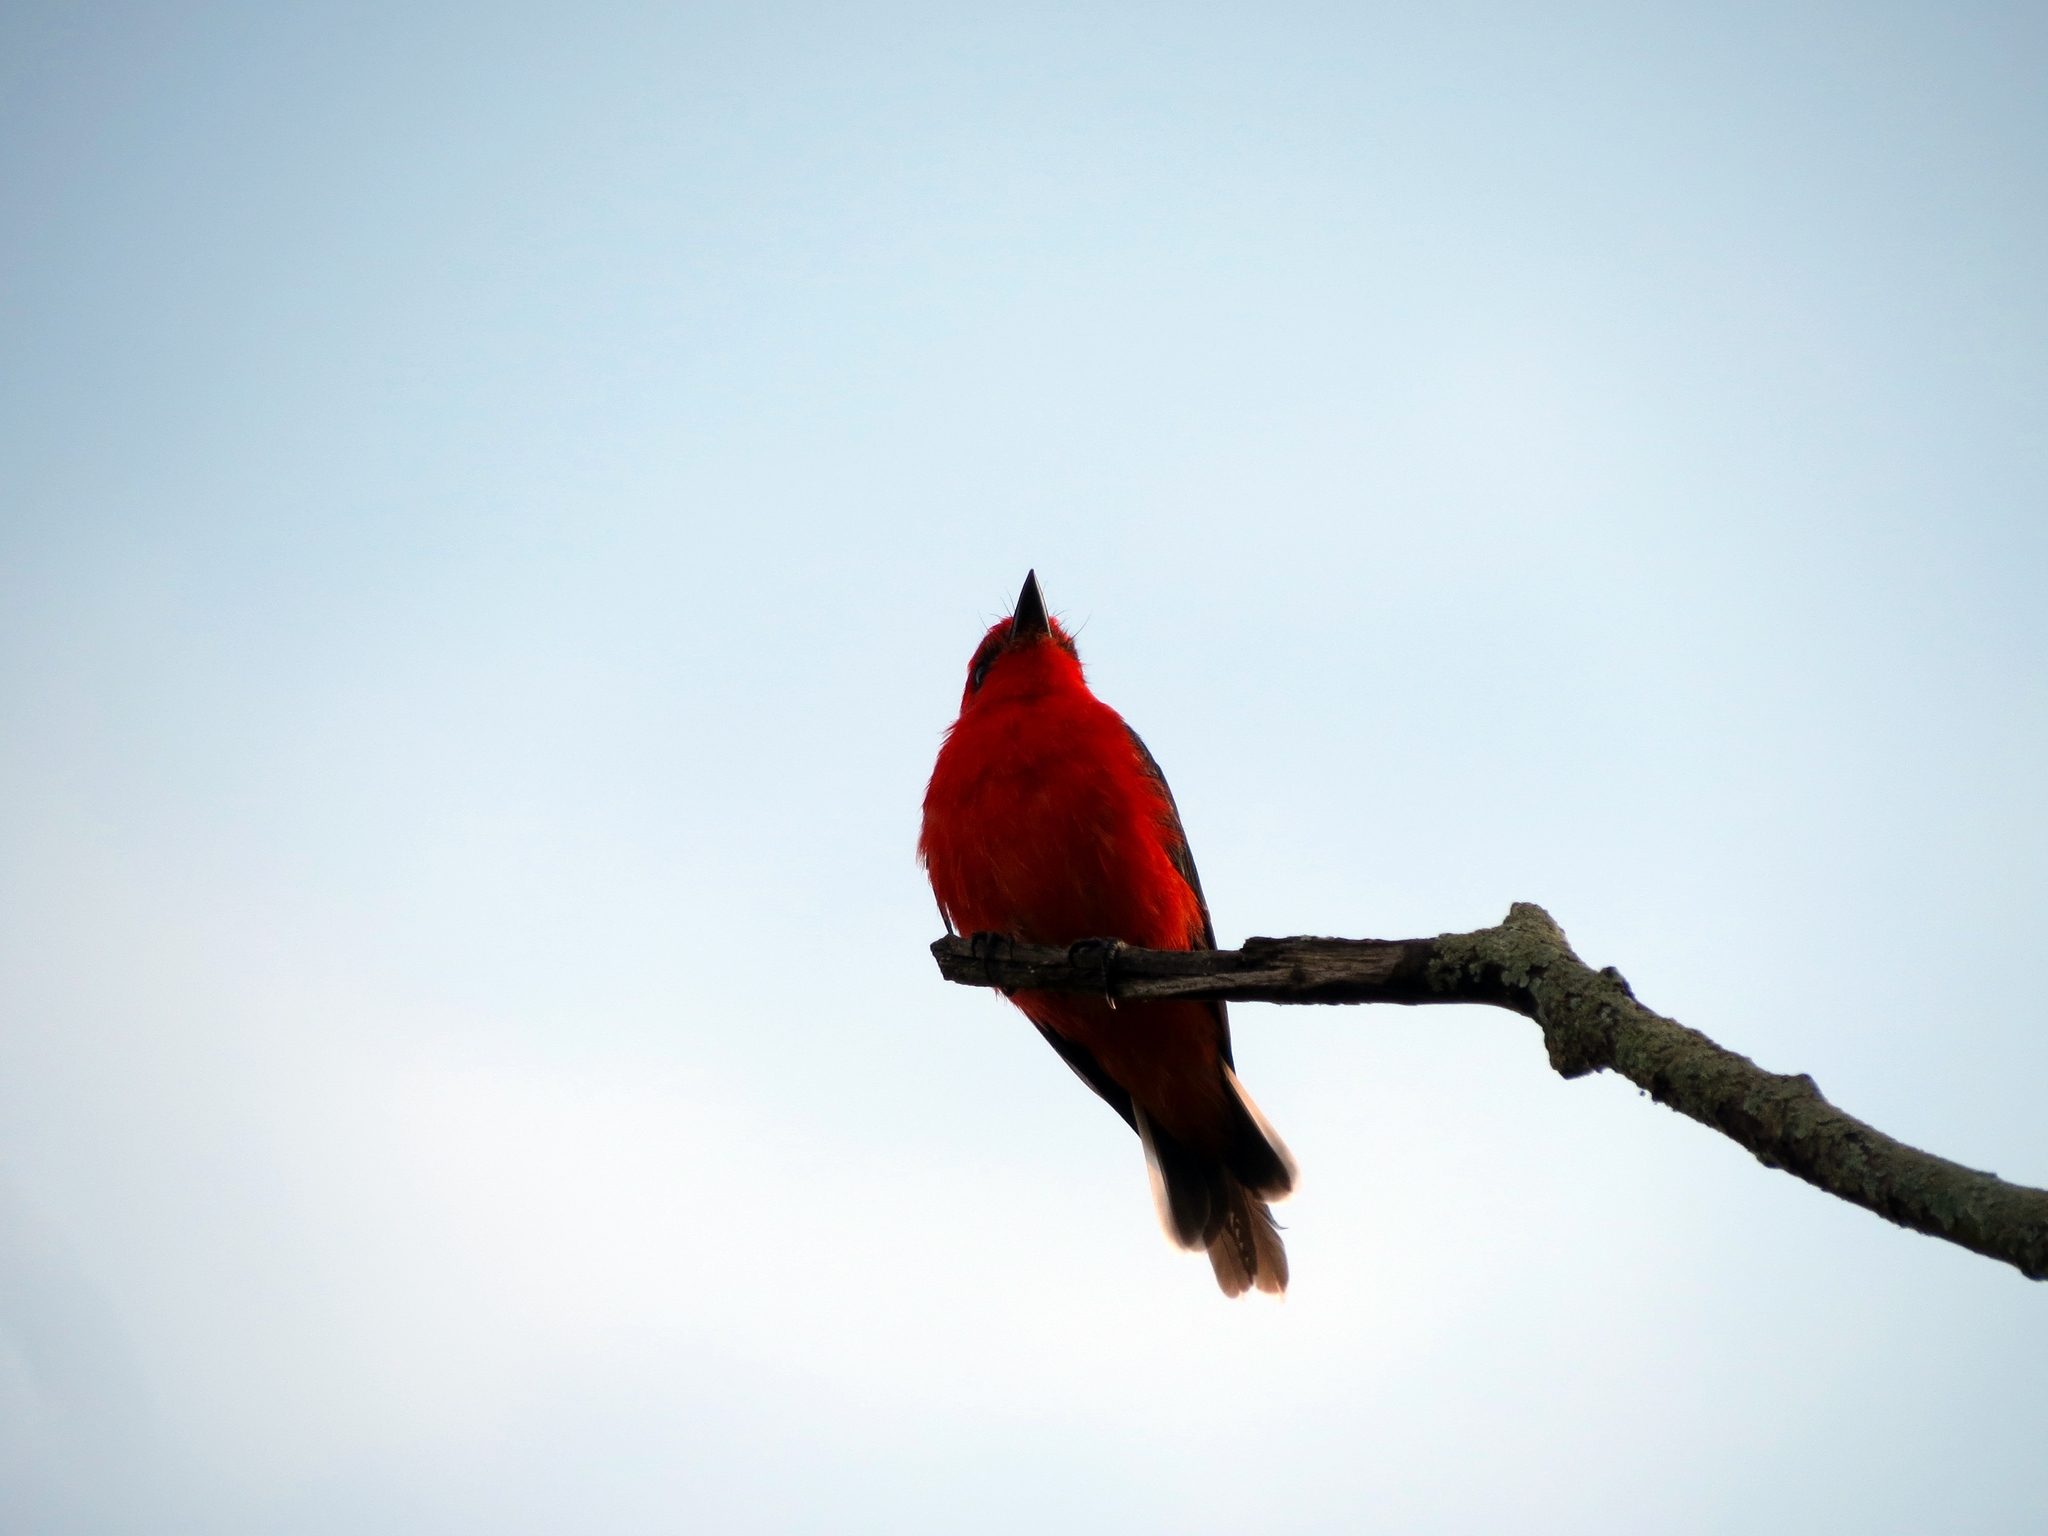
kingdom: Animalia
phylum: Chordata
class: Aves
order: Passeriformes
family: Tyrannidae
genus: Pyrocephalus
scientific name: Pyrocephalus rubinus
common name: Vermilion flycatcher
